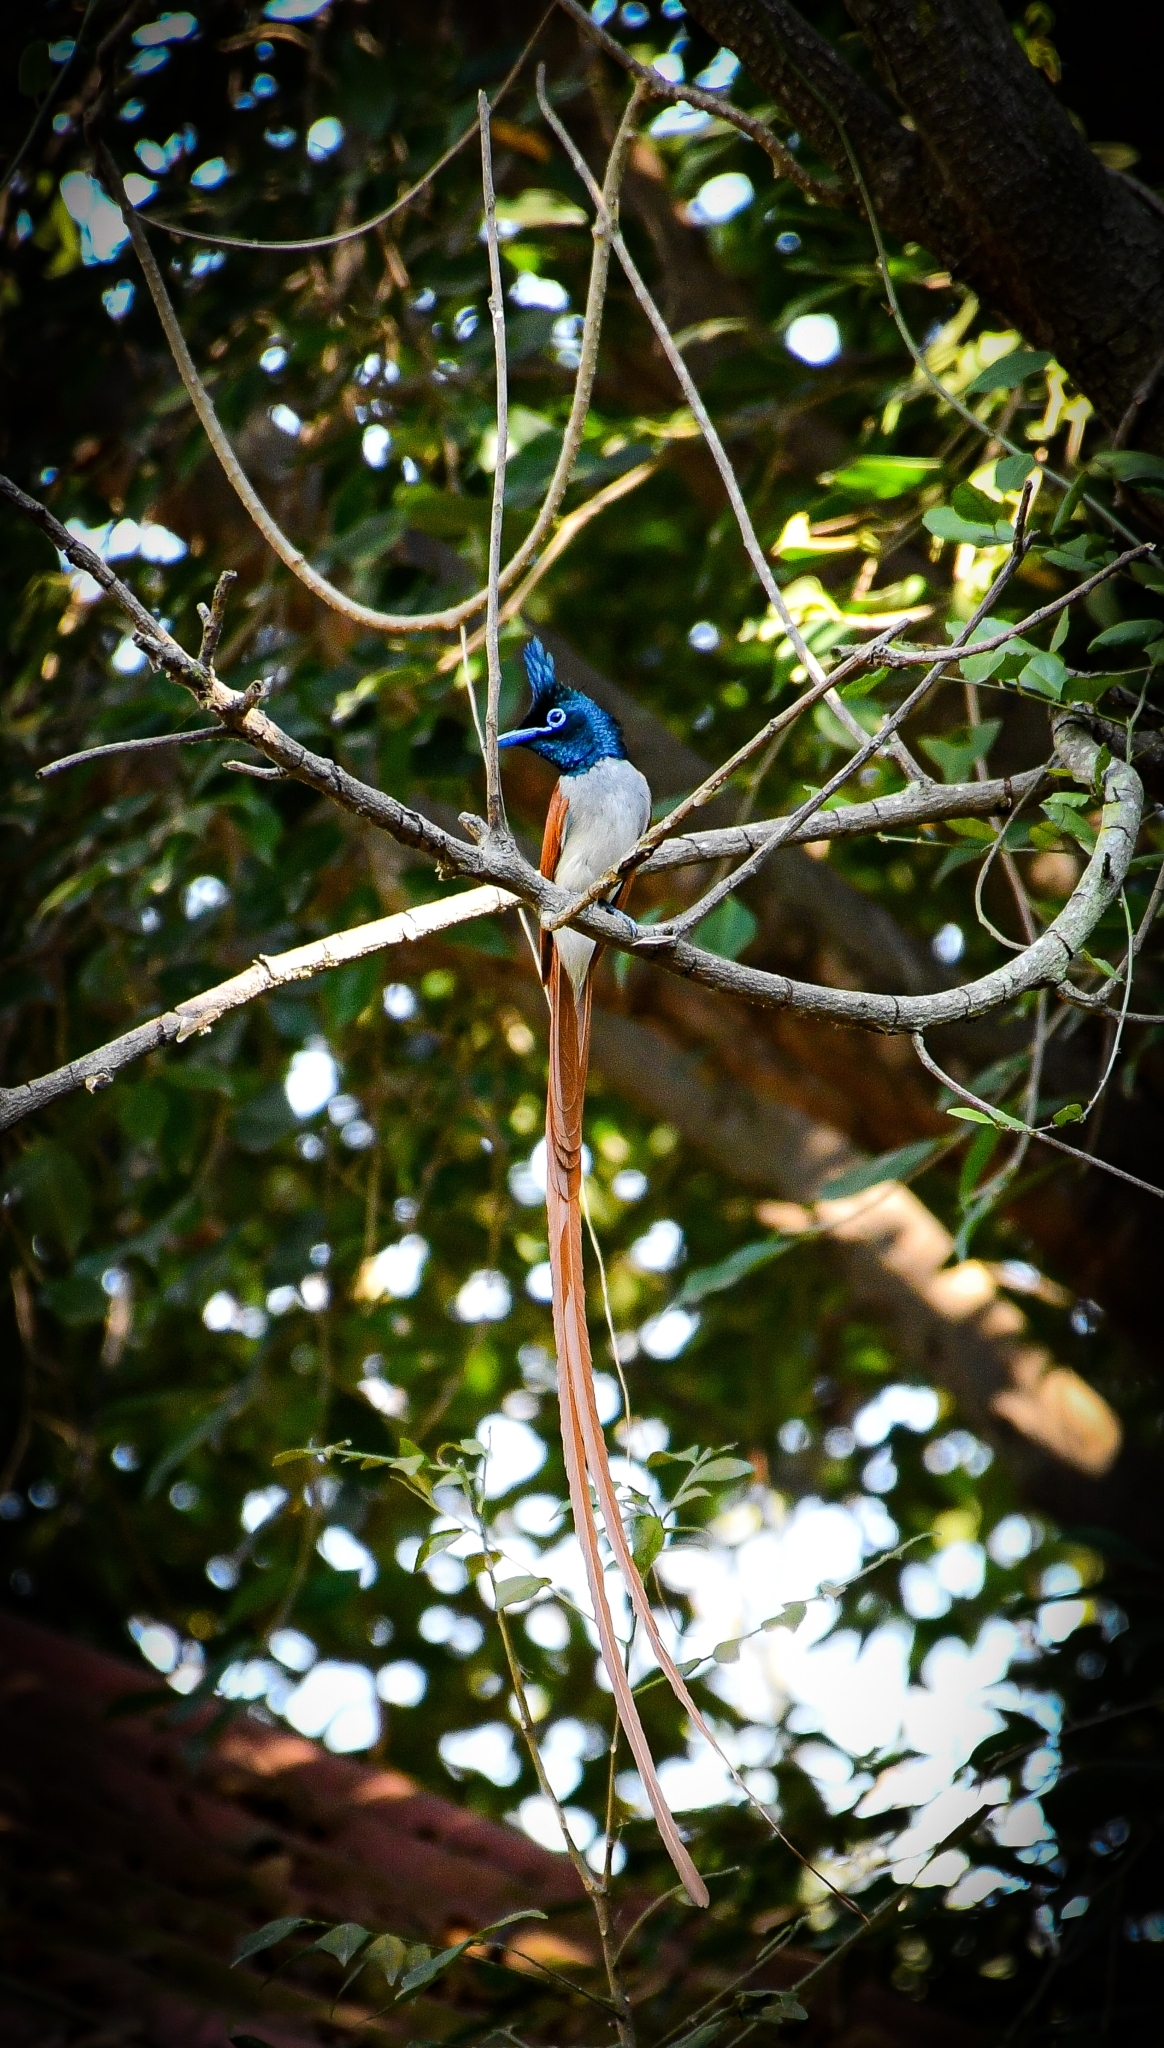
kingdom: Animalia
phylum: Chordata
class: Aves
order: Passeriformes
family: Monarchidae
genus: Terpsiphone
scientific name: Terpsiphone paradisi
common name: Indian paradise flycatcher
